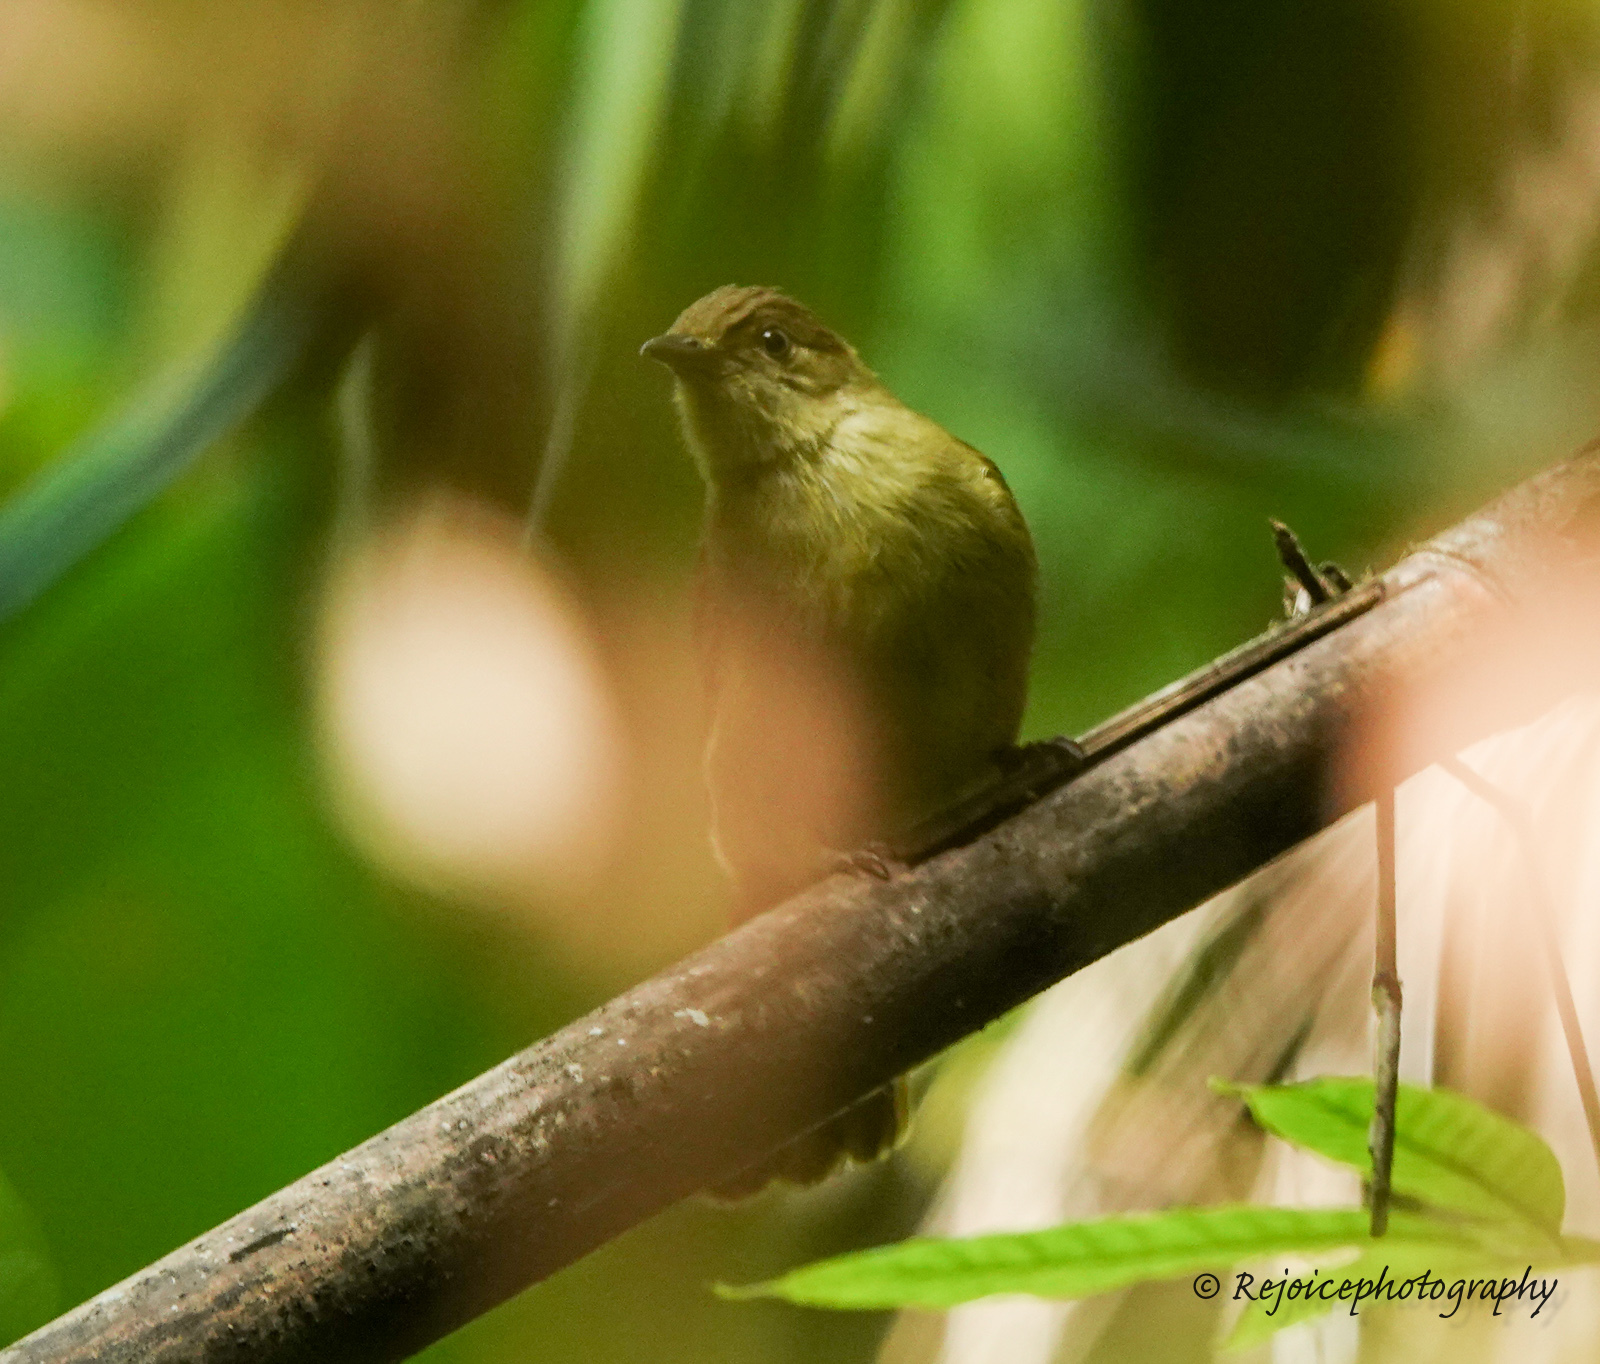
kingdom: Animalia
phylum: Chordata
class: Aves
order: Passeriformes
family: Pycnonotidae
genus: Iole
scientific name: Iole virescens
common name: Olive bulbul
